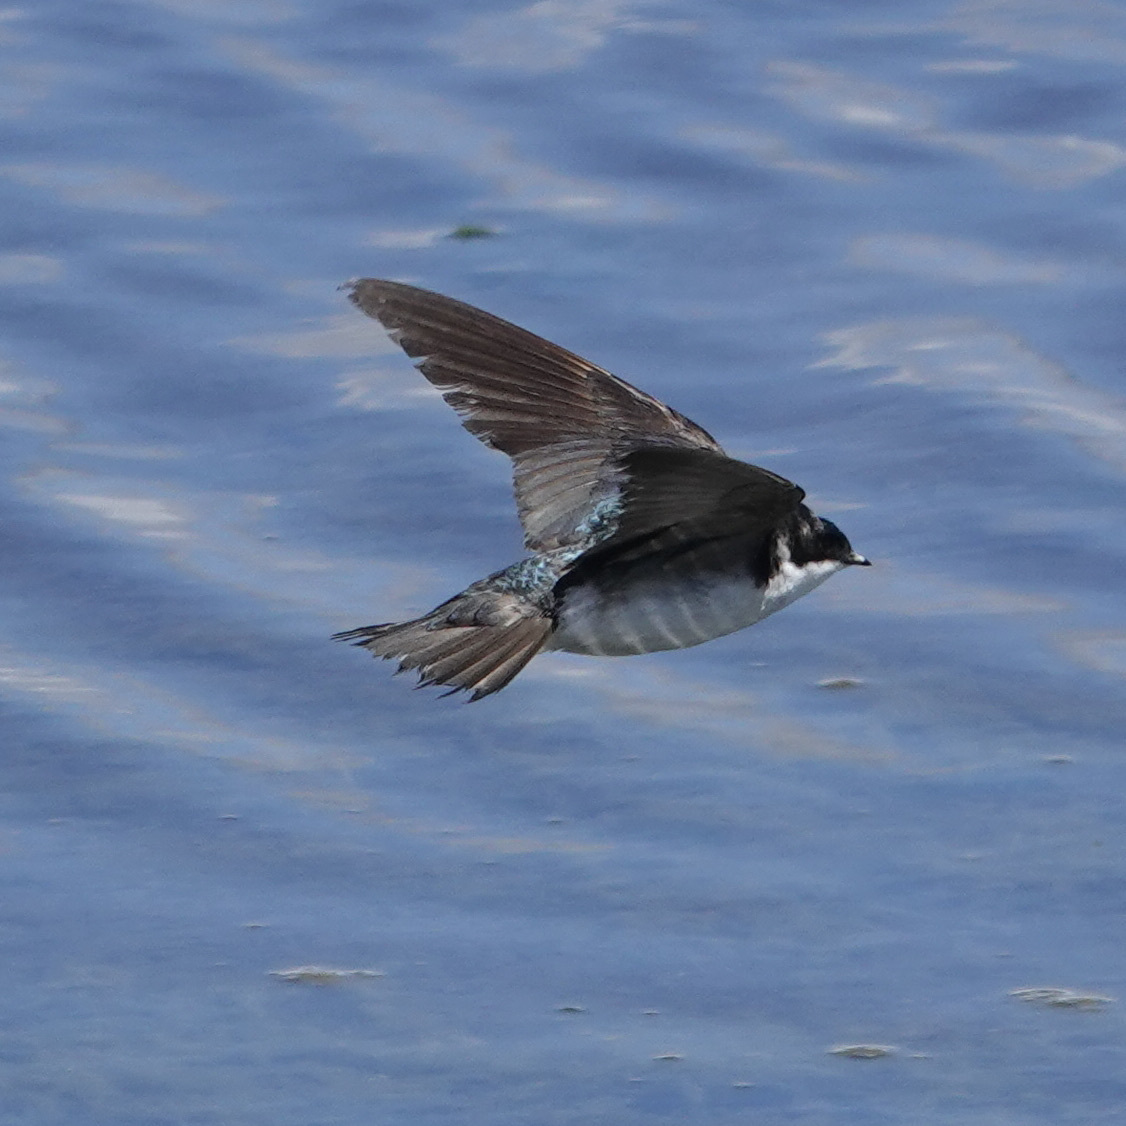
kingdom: Animalia
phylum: Chordata
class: Aves
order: Passeriformes
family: Hirundinidae
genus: Tachycineta
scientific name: Tachycineta bicolor
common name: Tree swallow
